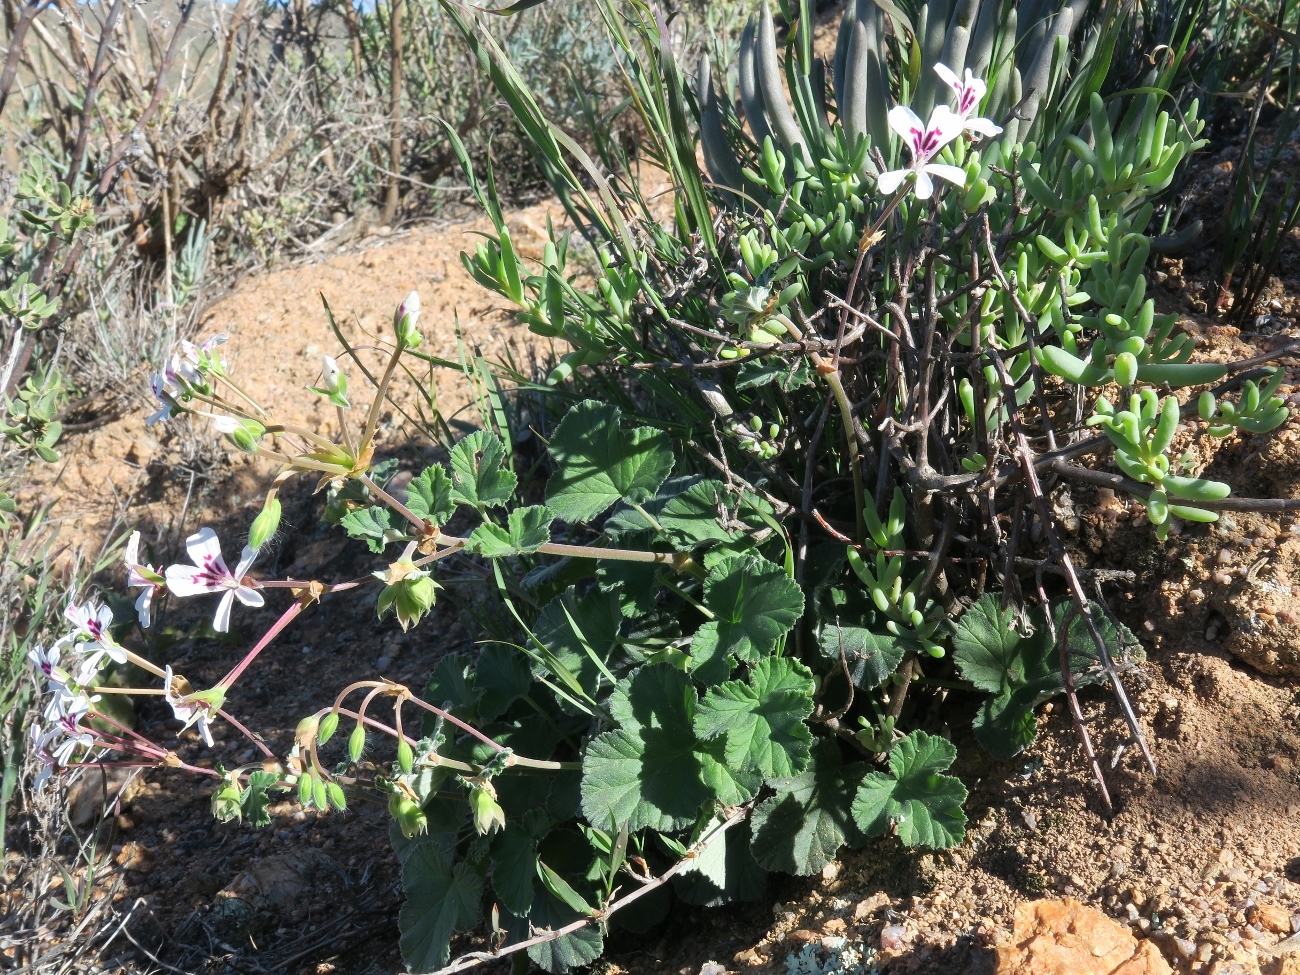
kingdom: Plantae
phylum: Tracheophyta
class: Magnoliopsida
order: Geraniales
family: Geraniaceae
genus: Pelargonium
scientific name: Pelargonium echinatum
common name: Cactus geranium
